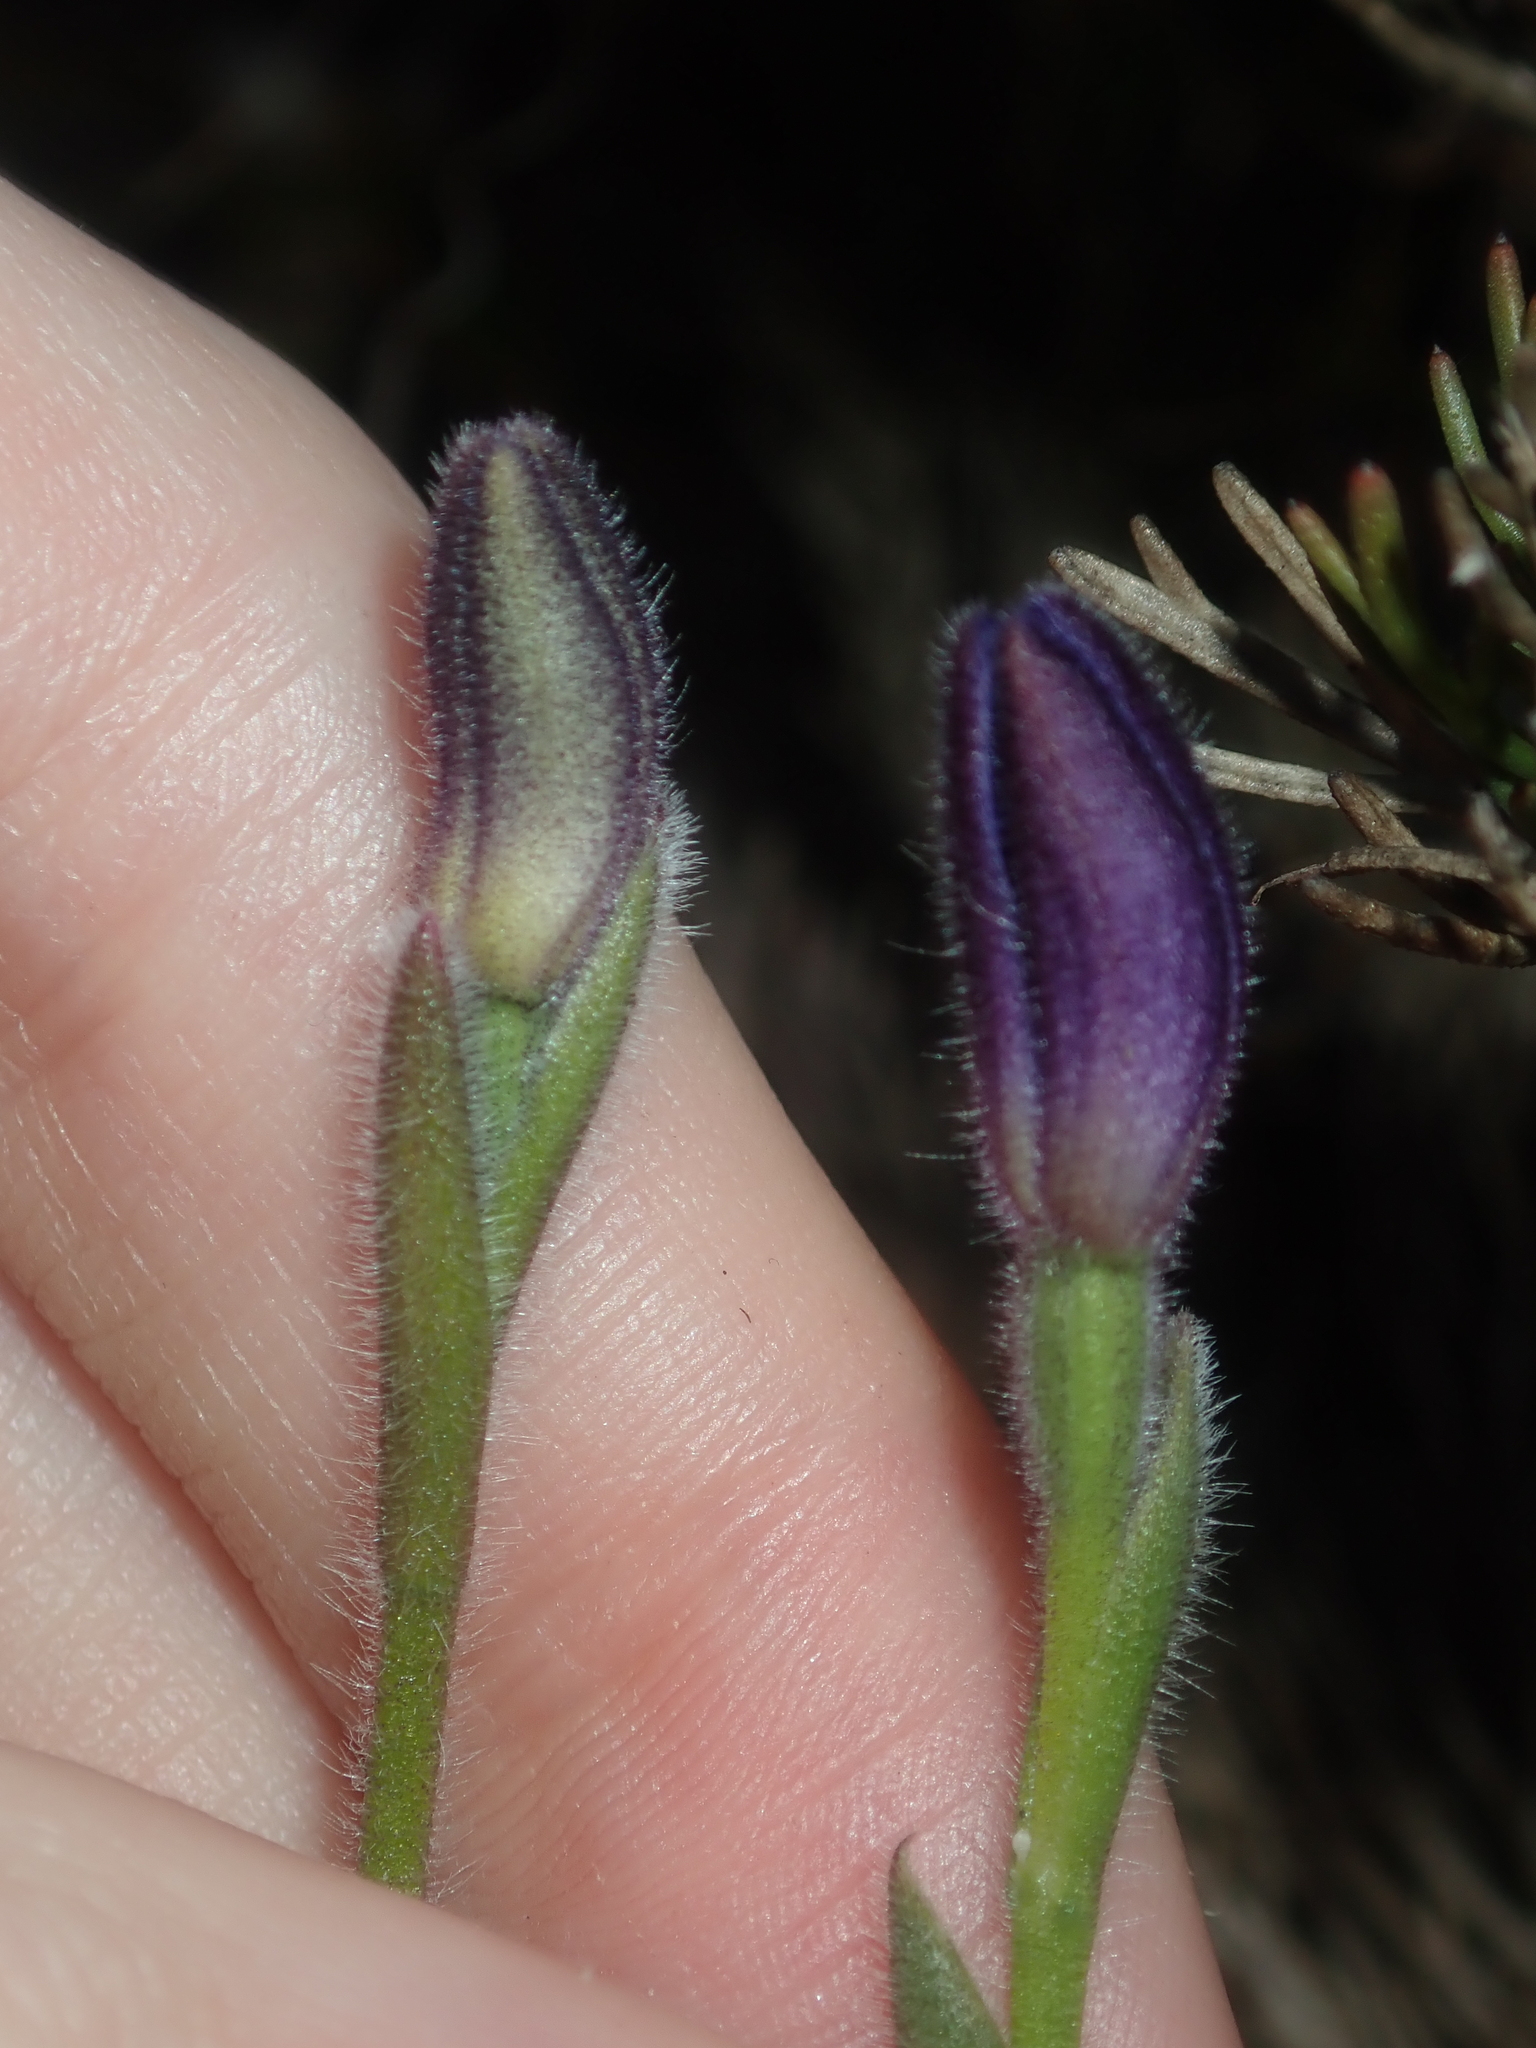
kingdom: Plantae
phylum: Tracheophyta
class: Liliopsida
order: Asparagales
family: Orchidaceae
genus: Caladenia
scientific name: Caladenia hirta
